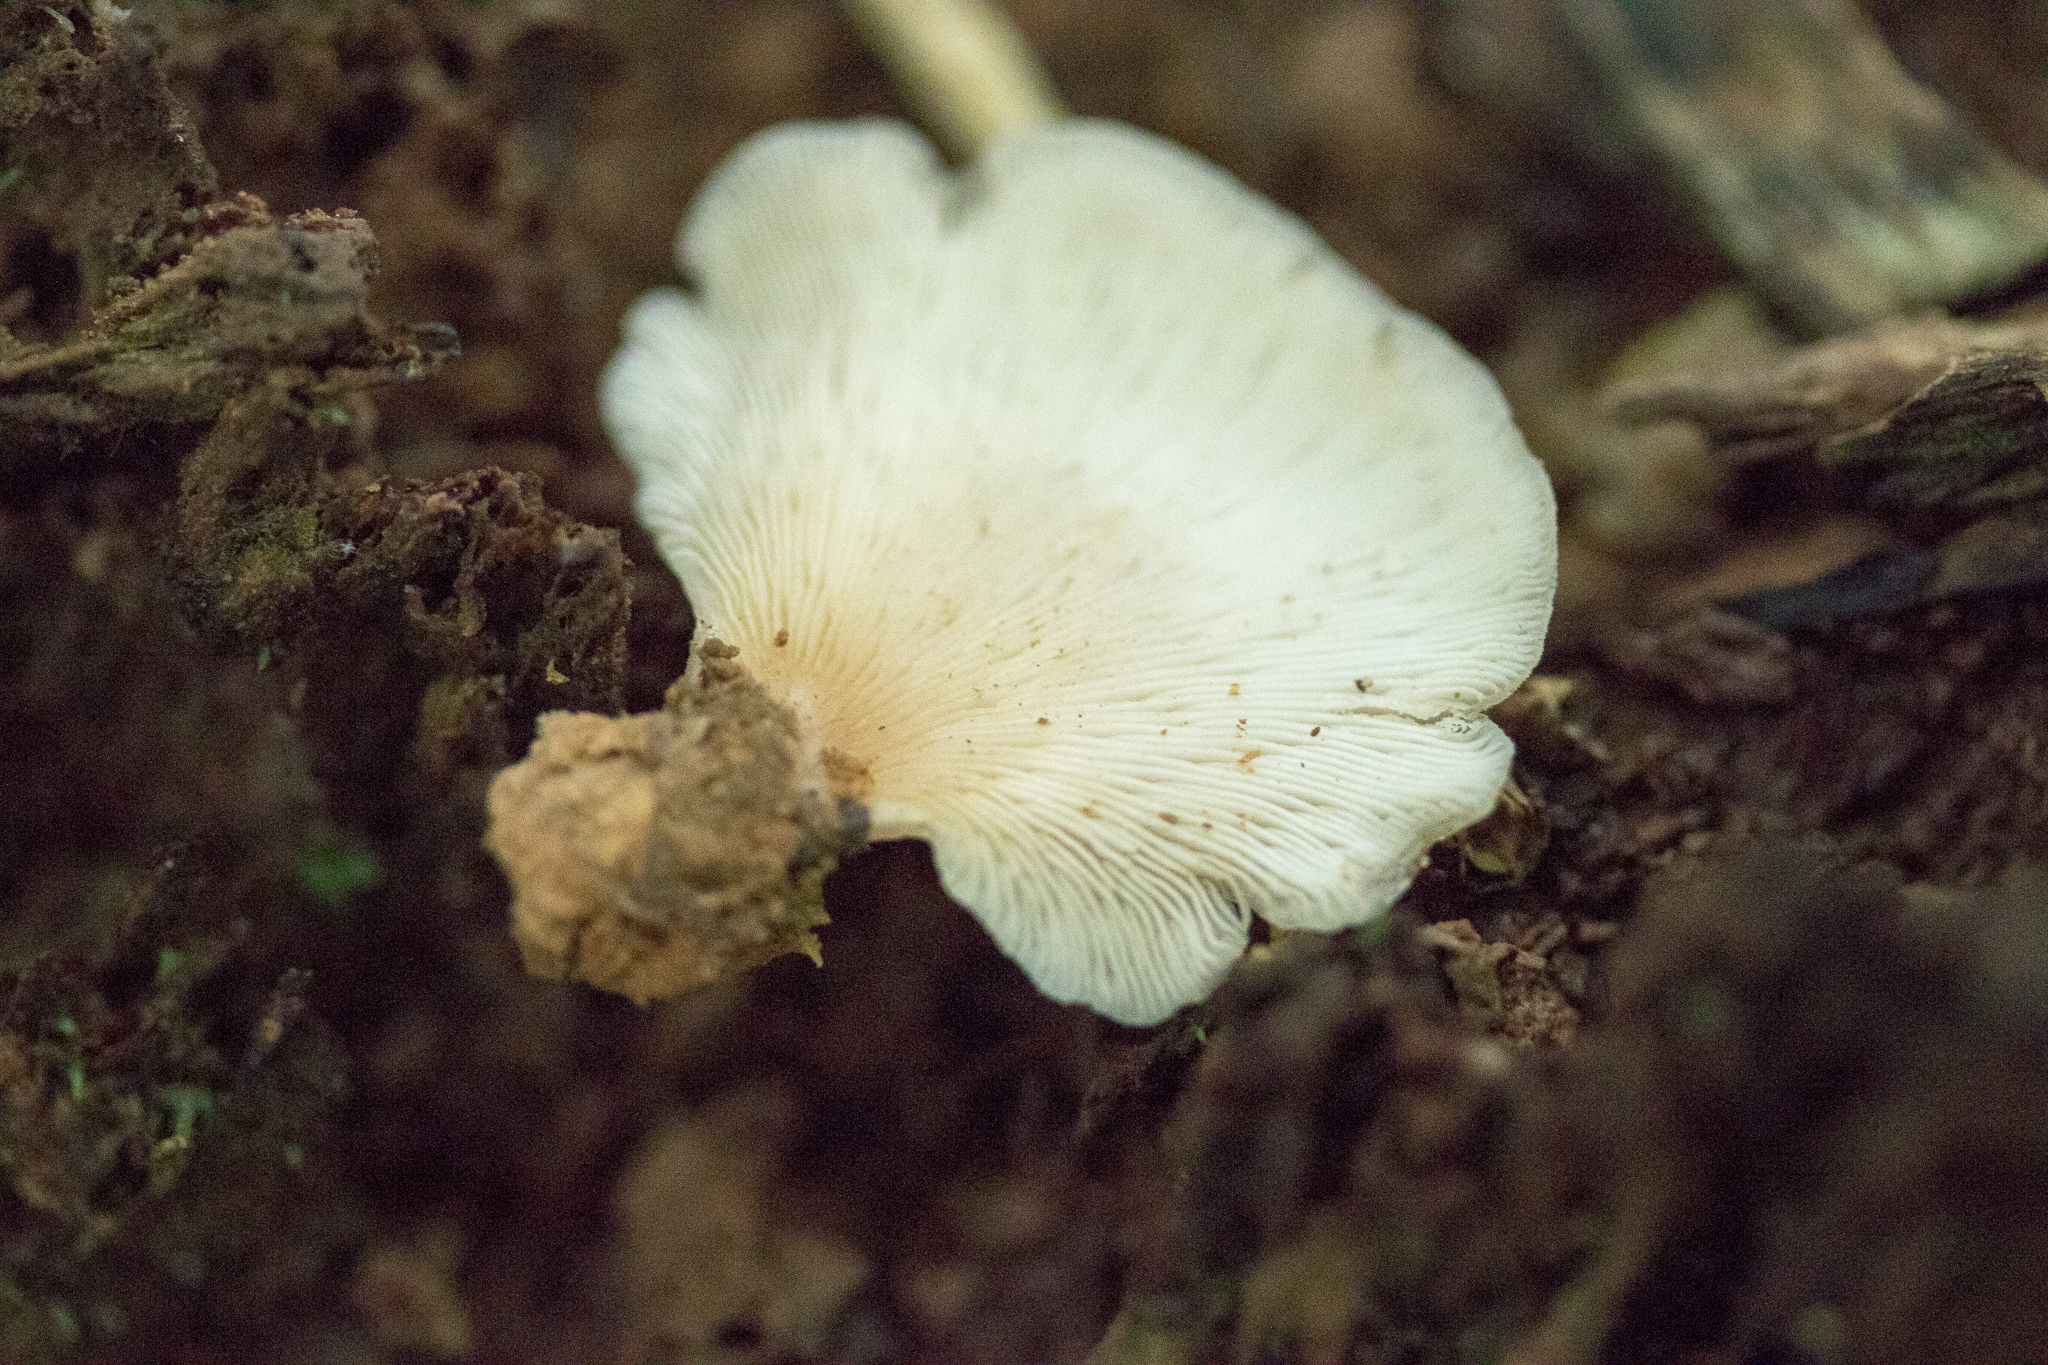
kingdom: Fungi
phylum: Basidiomycota
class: Agaricomycetes
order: Agaricales
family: Crepidotaceae
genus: Crepidotus
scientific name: Crepidotus applanatus
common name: Flat crep
